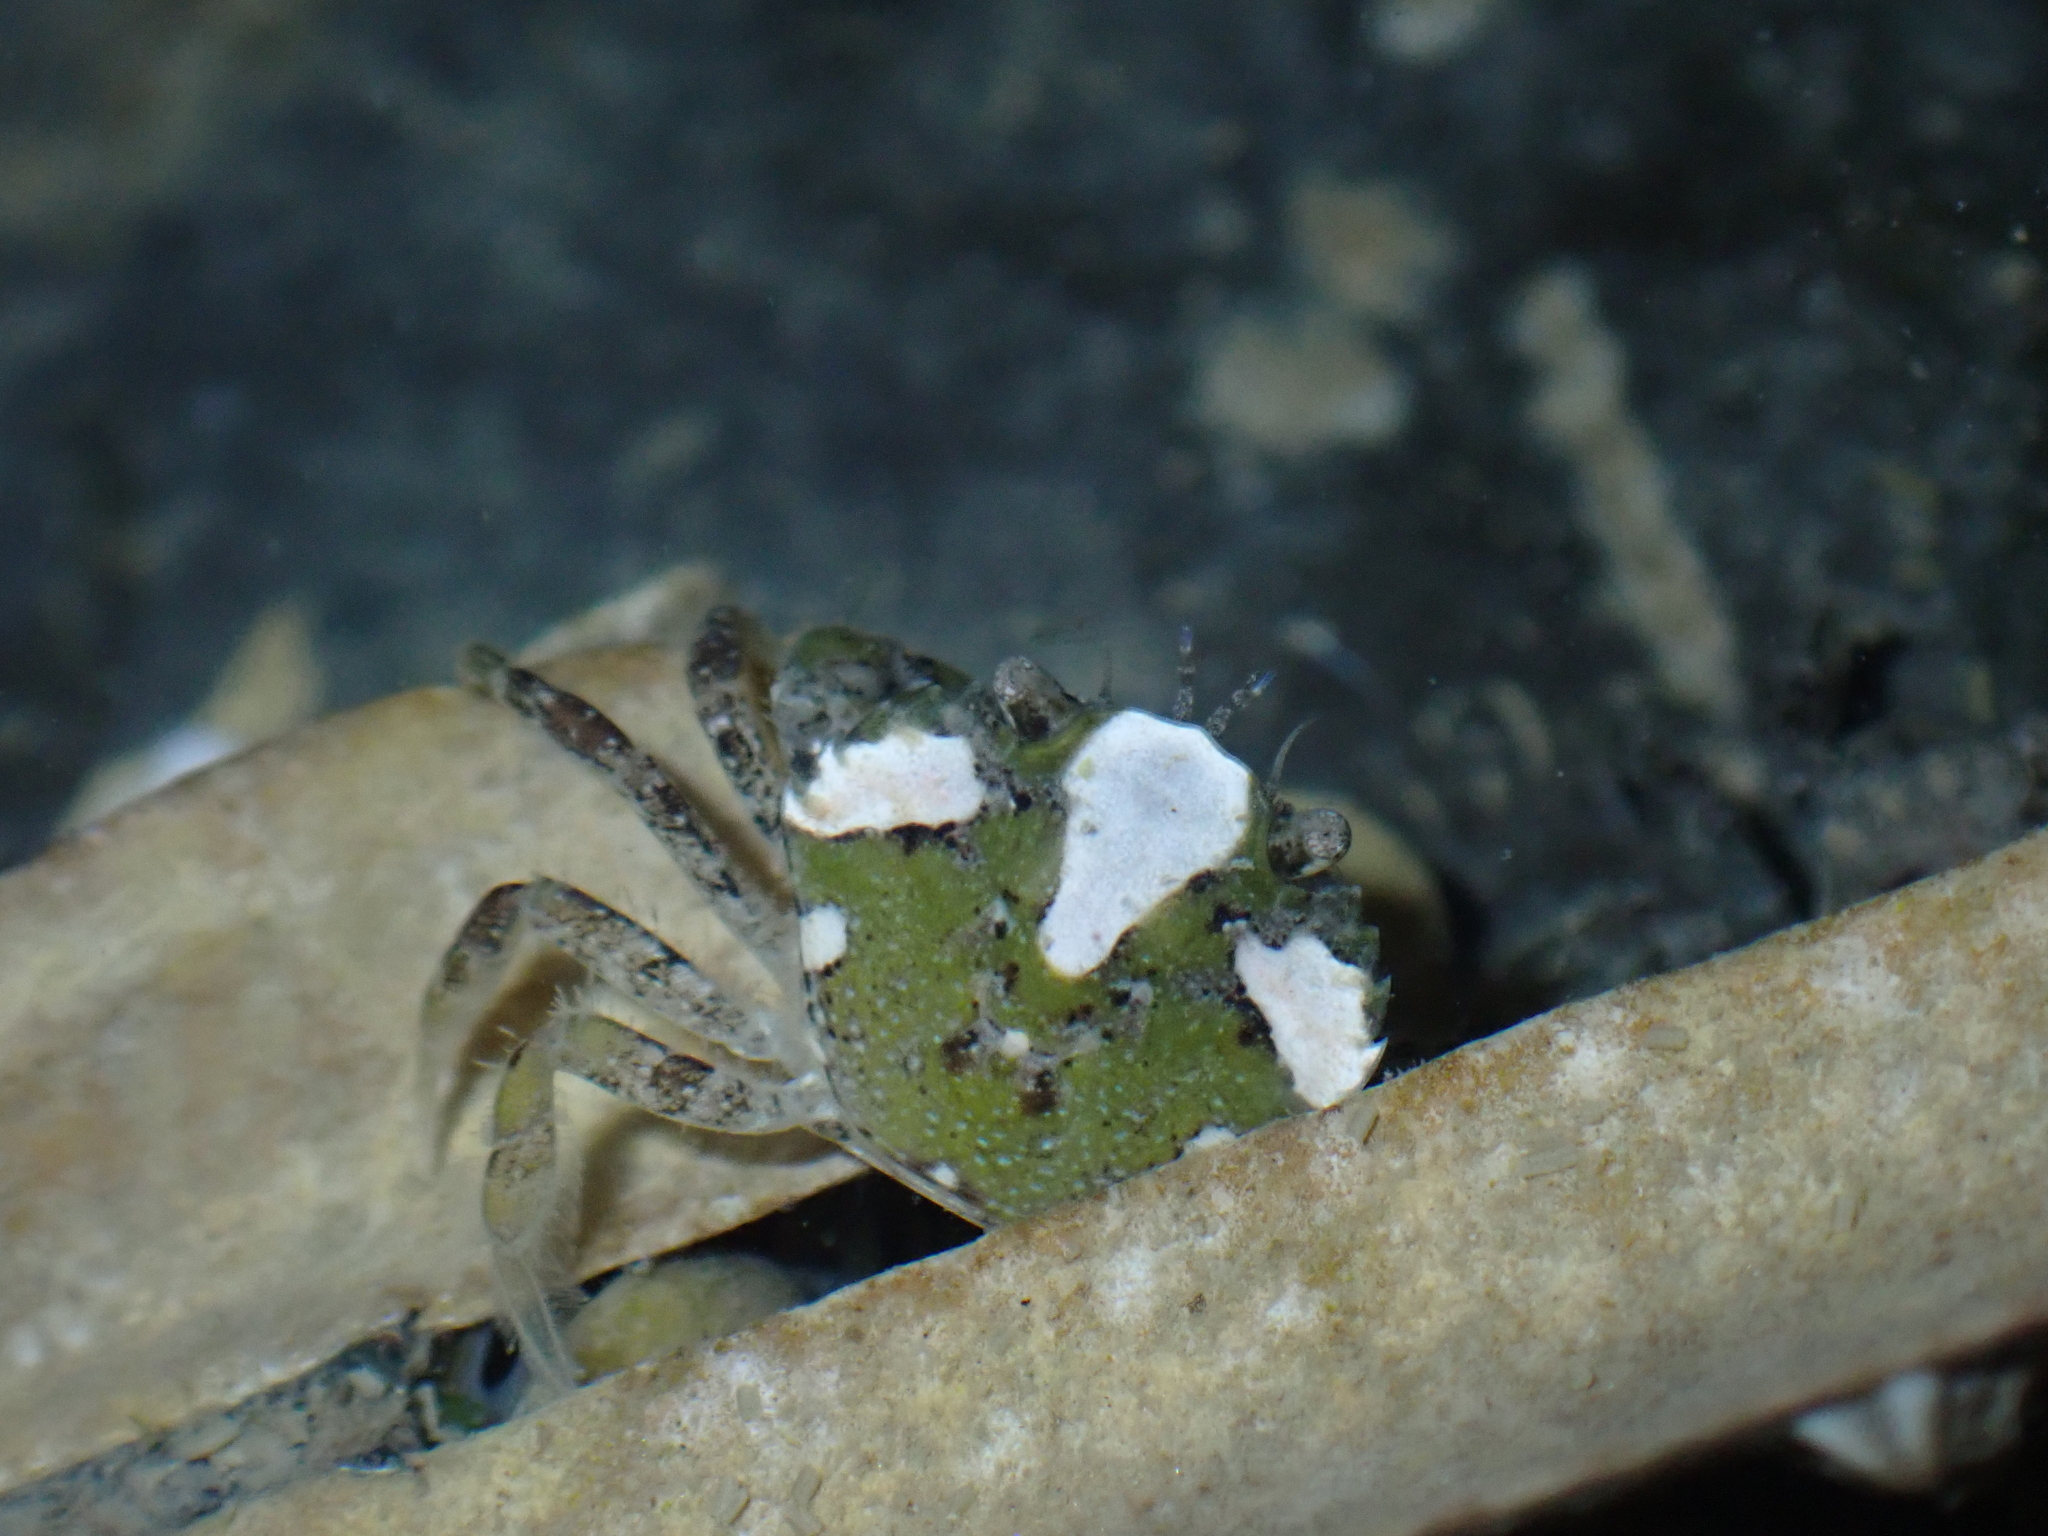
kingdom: Animalia
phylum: Arthropoda
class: Malacostraca
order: Decapoda
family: Carcinidae
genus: Carcinus
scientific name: Carcinus maenas
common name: European green crab
